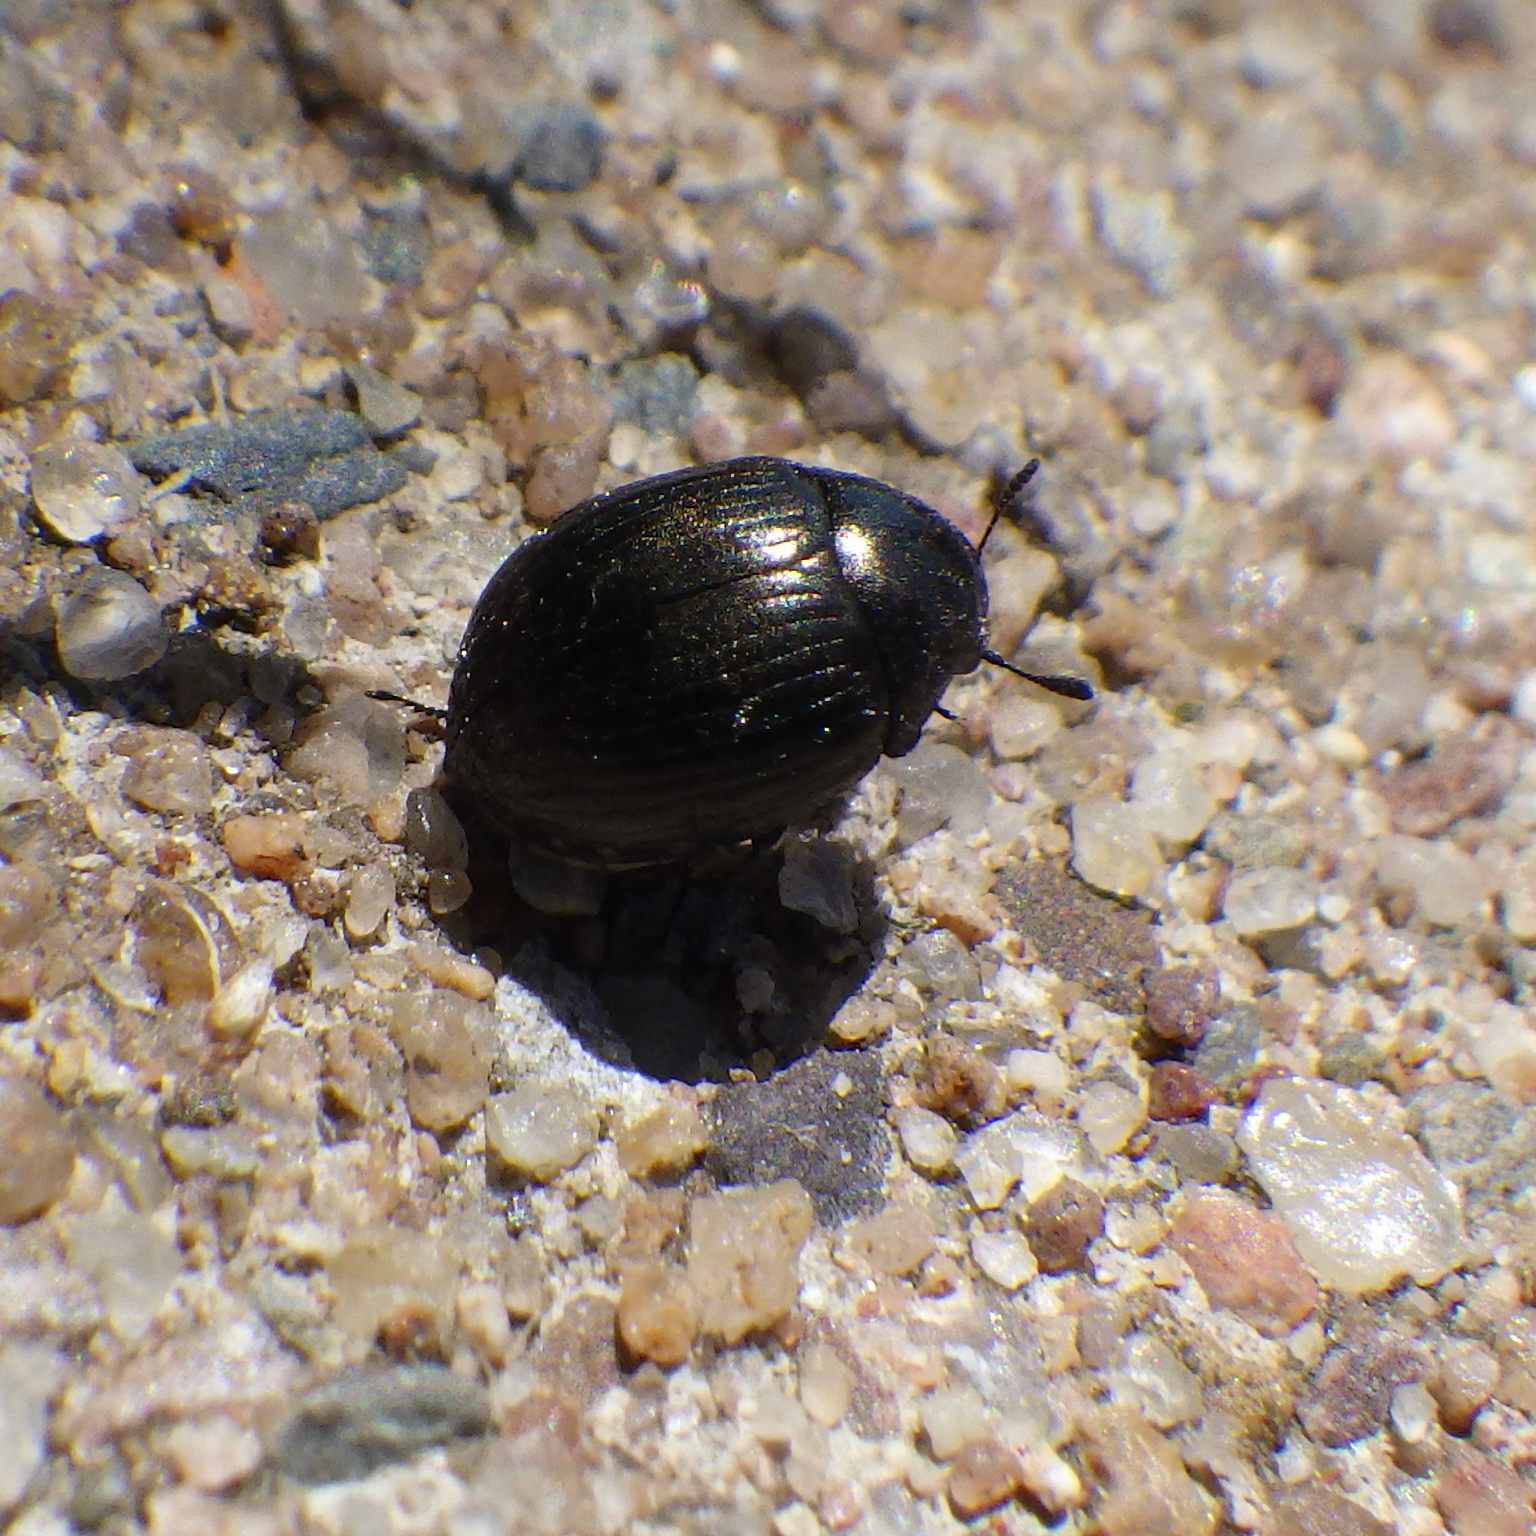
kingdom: Animalia
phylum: Arthropoda
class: Insecta
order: Coleoptera
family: Byrrhidae
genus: Cytilus
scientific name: Cytilus alternatus
